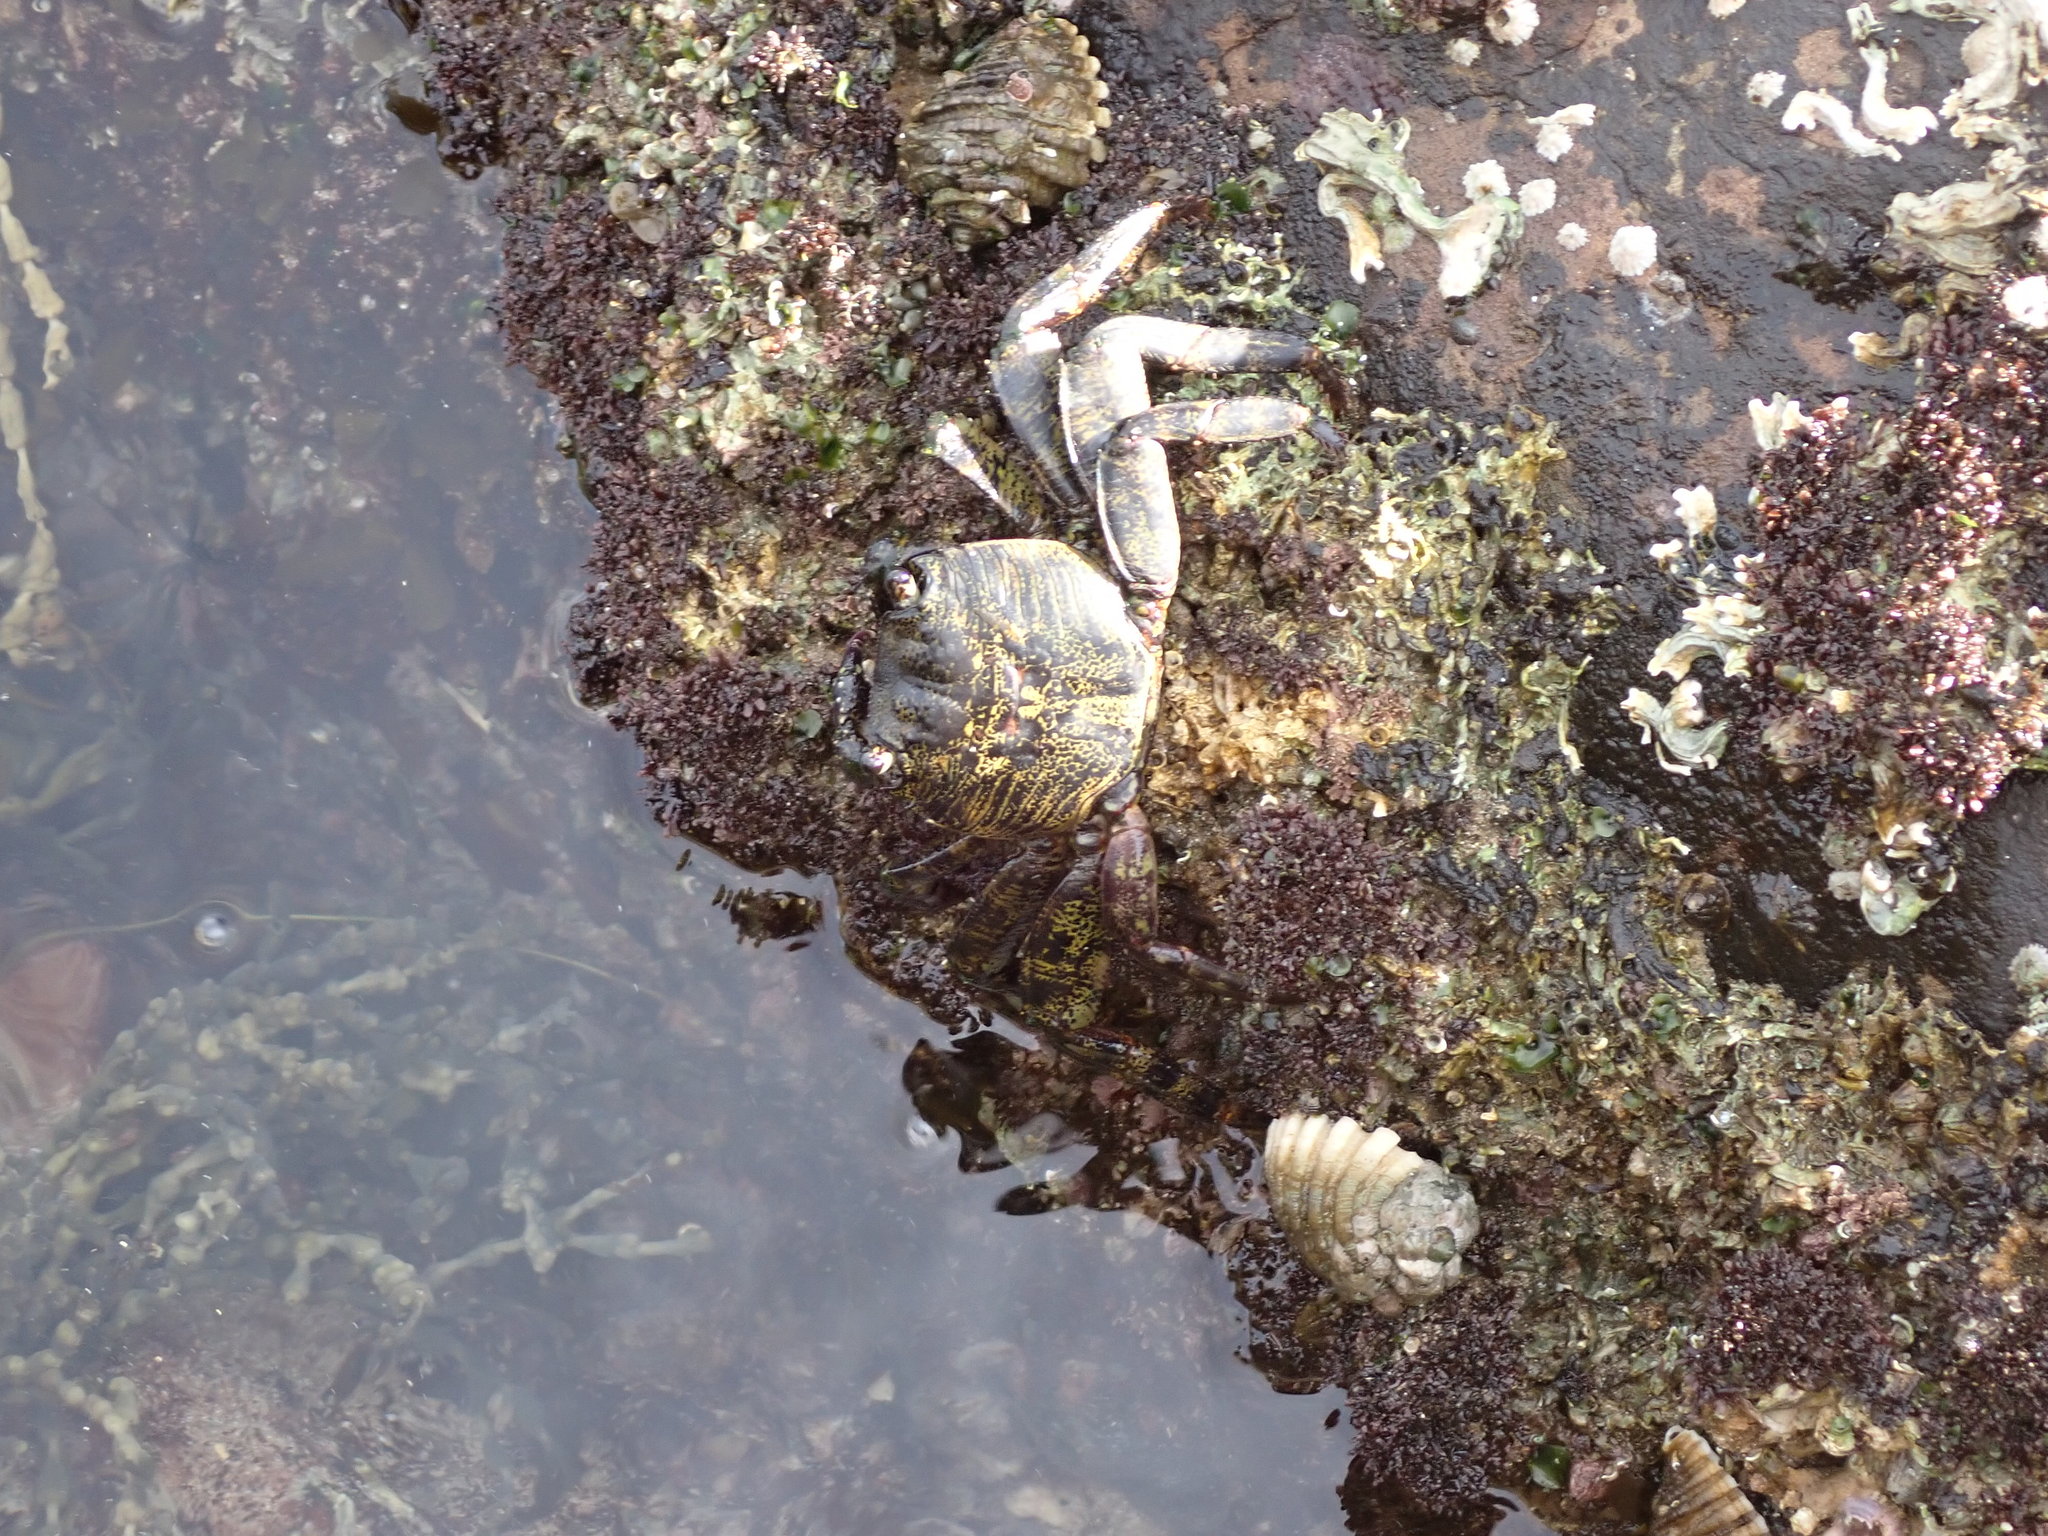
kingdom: Animalia
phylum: Arthropoda
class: Malacostraca
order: Decapoda
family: Grapsidae
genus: Leptograpsus
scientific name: Leptograpsus variegatus
